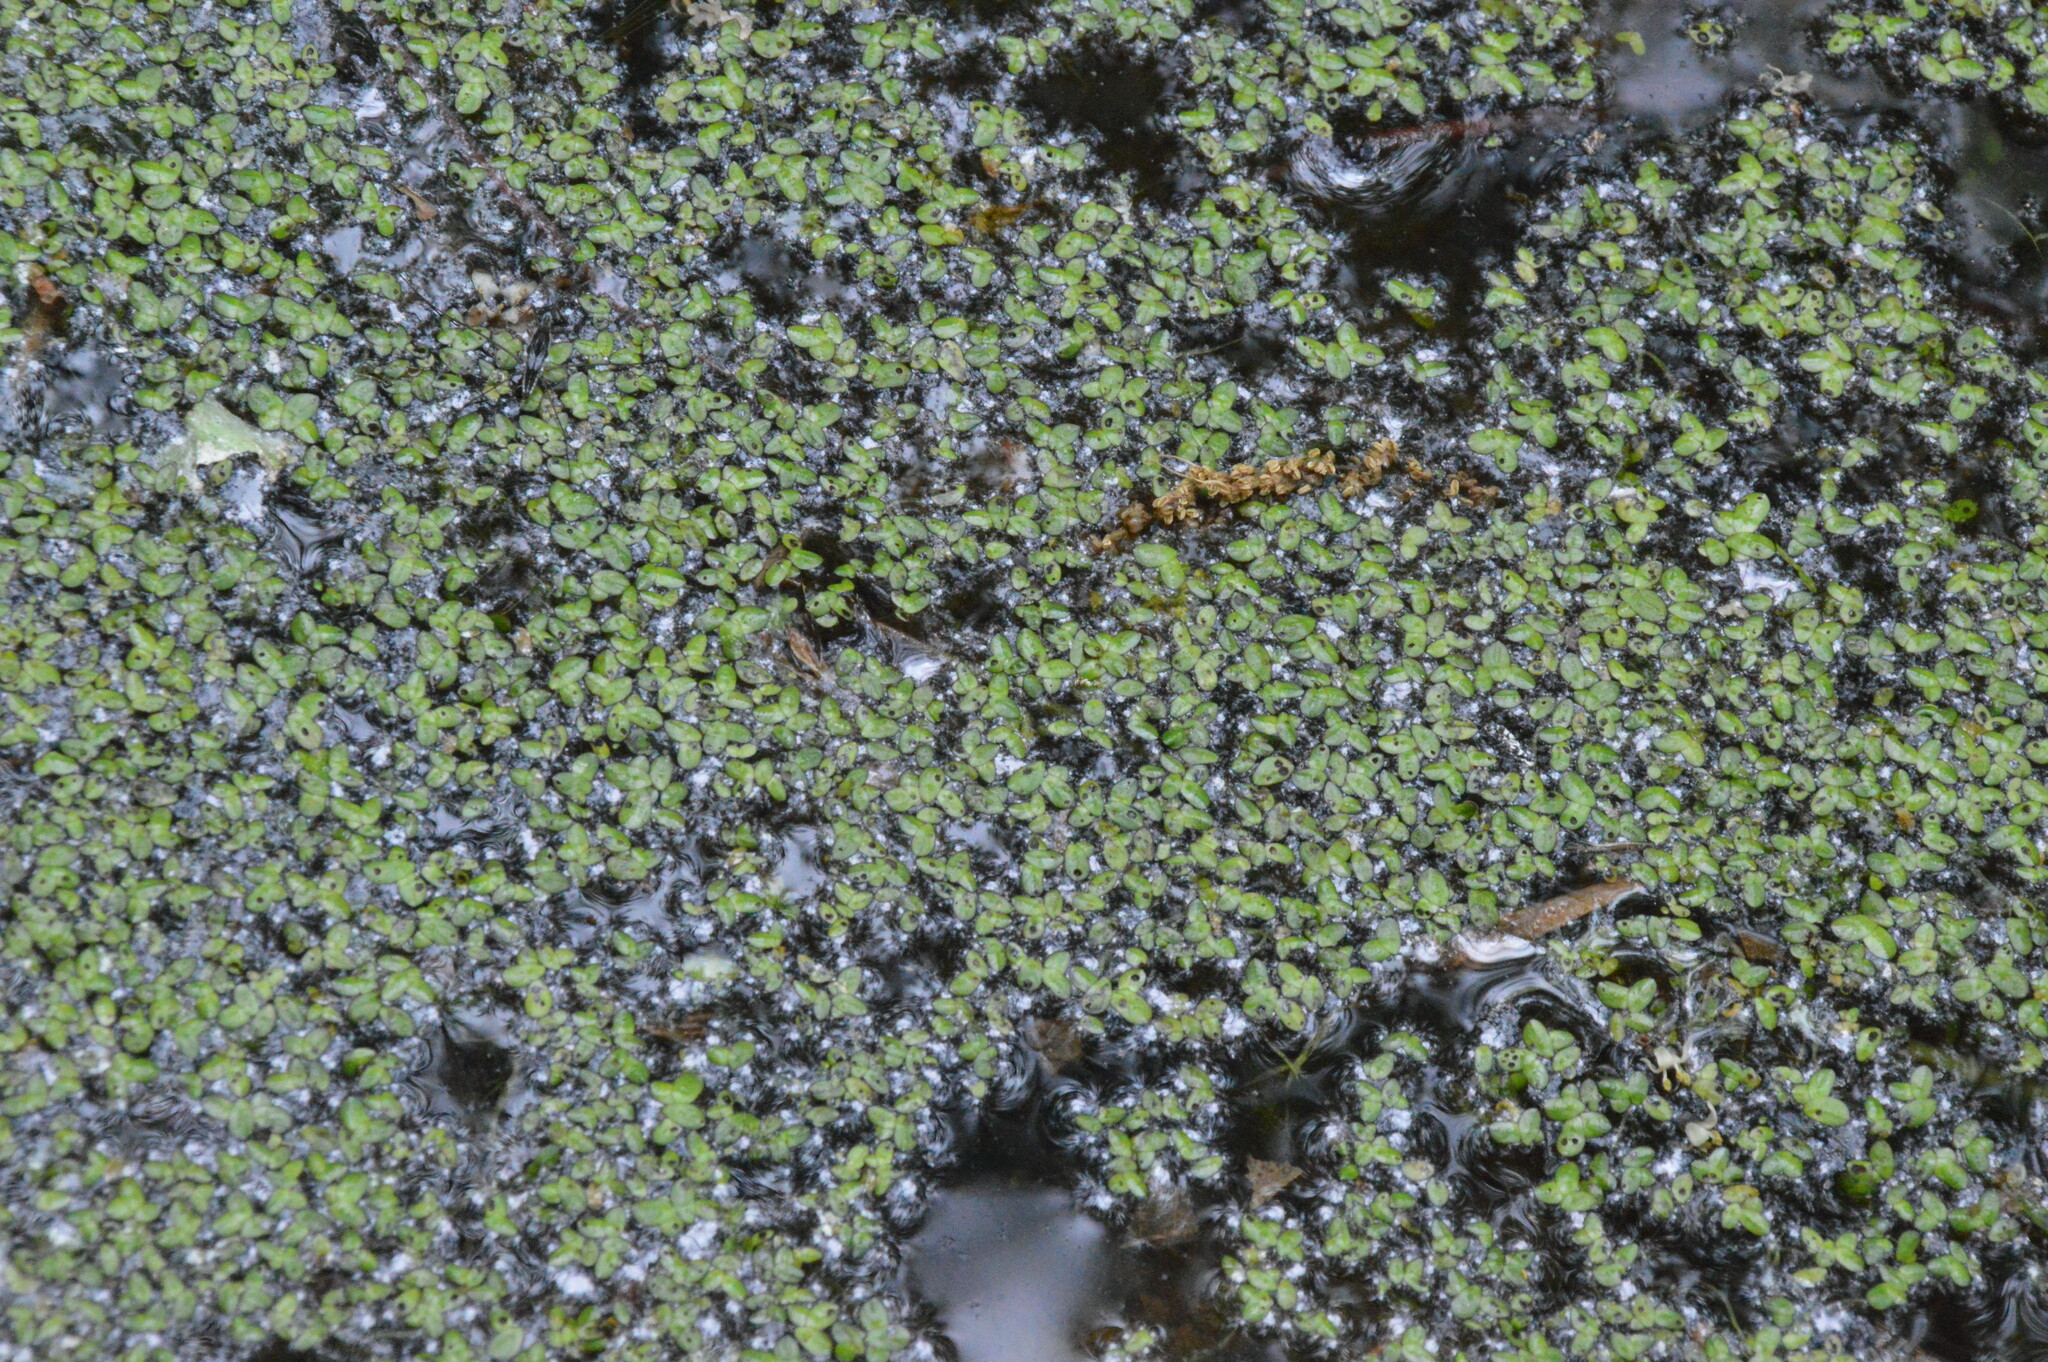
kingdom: Plantae
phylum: Tracheophyta
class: Liliopsida
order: Alismatales
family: Araceae
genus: Spirodela
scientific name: Spirodela punctata
